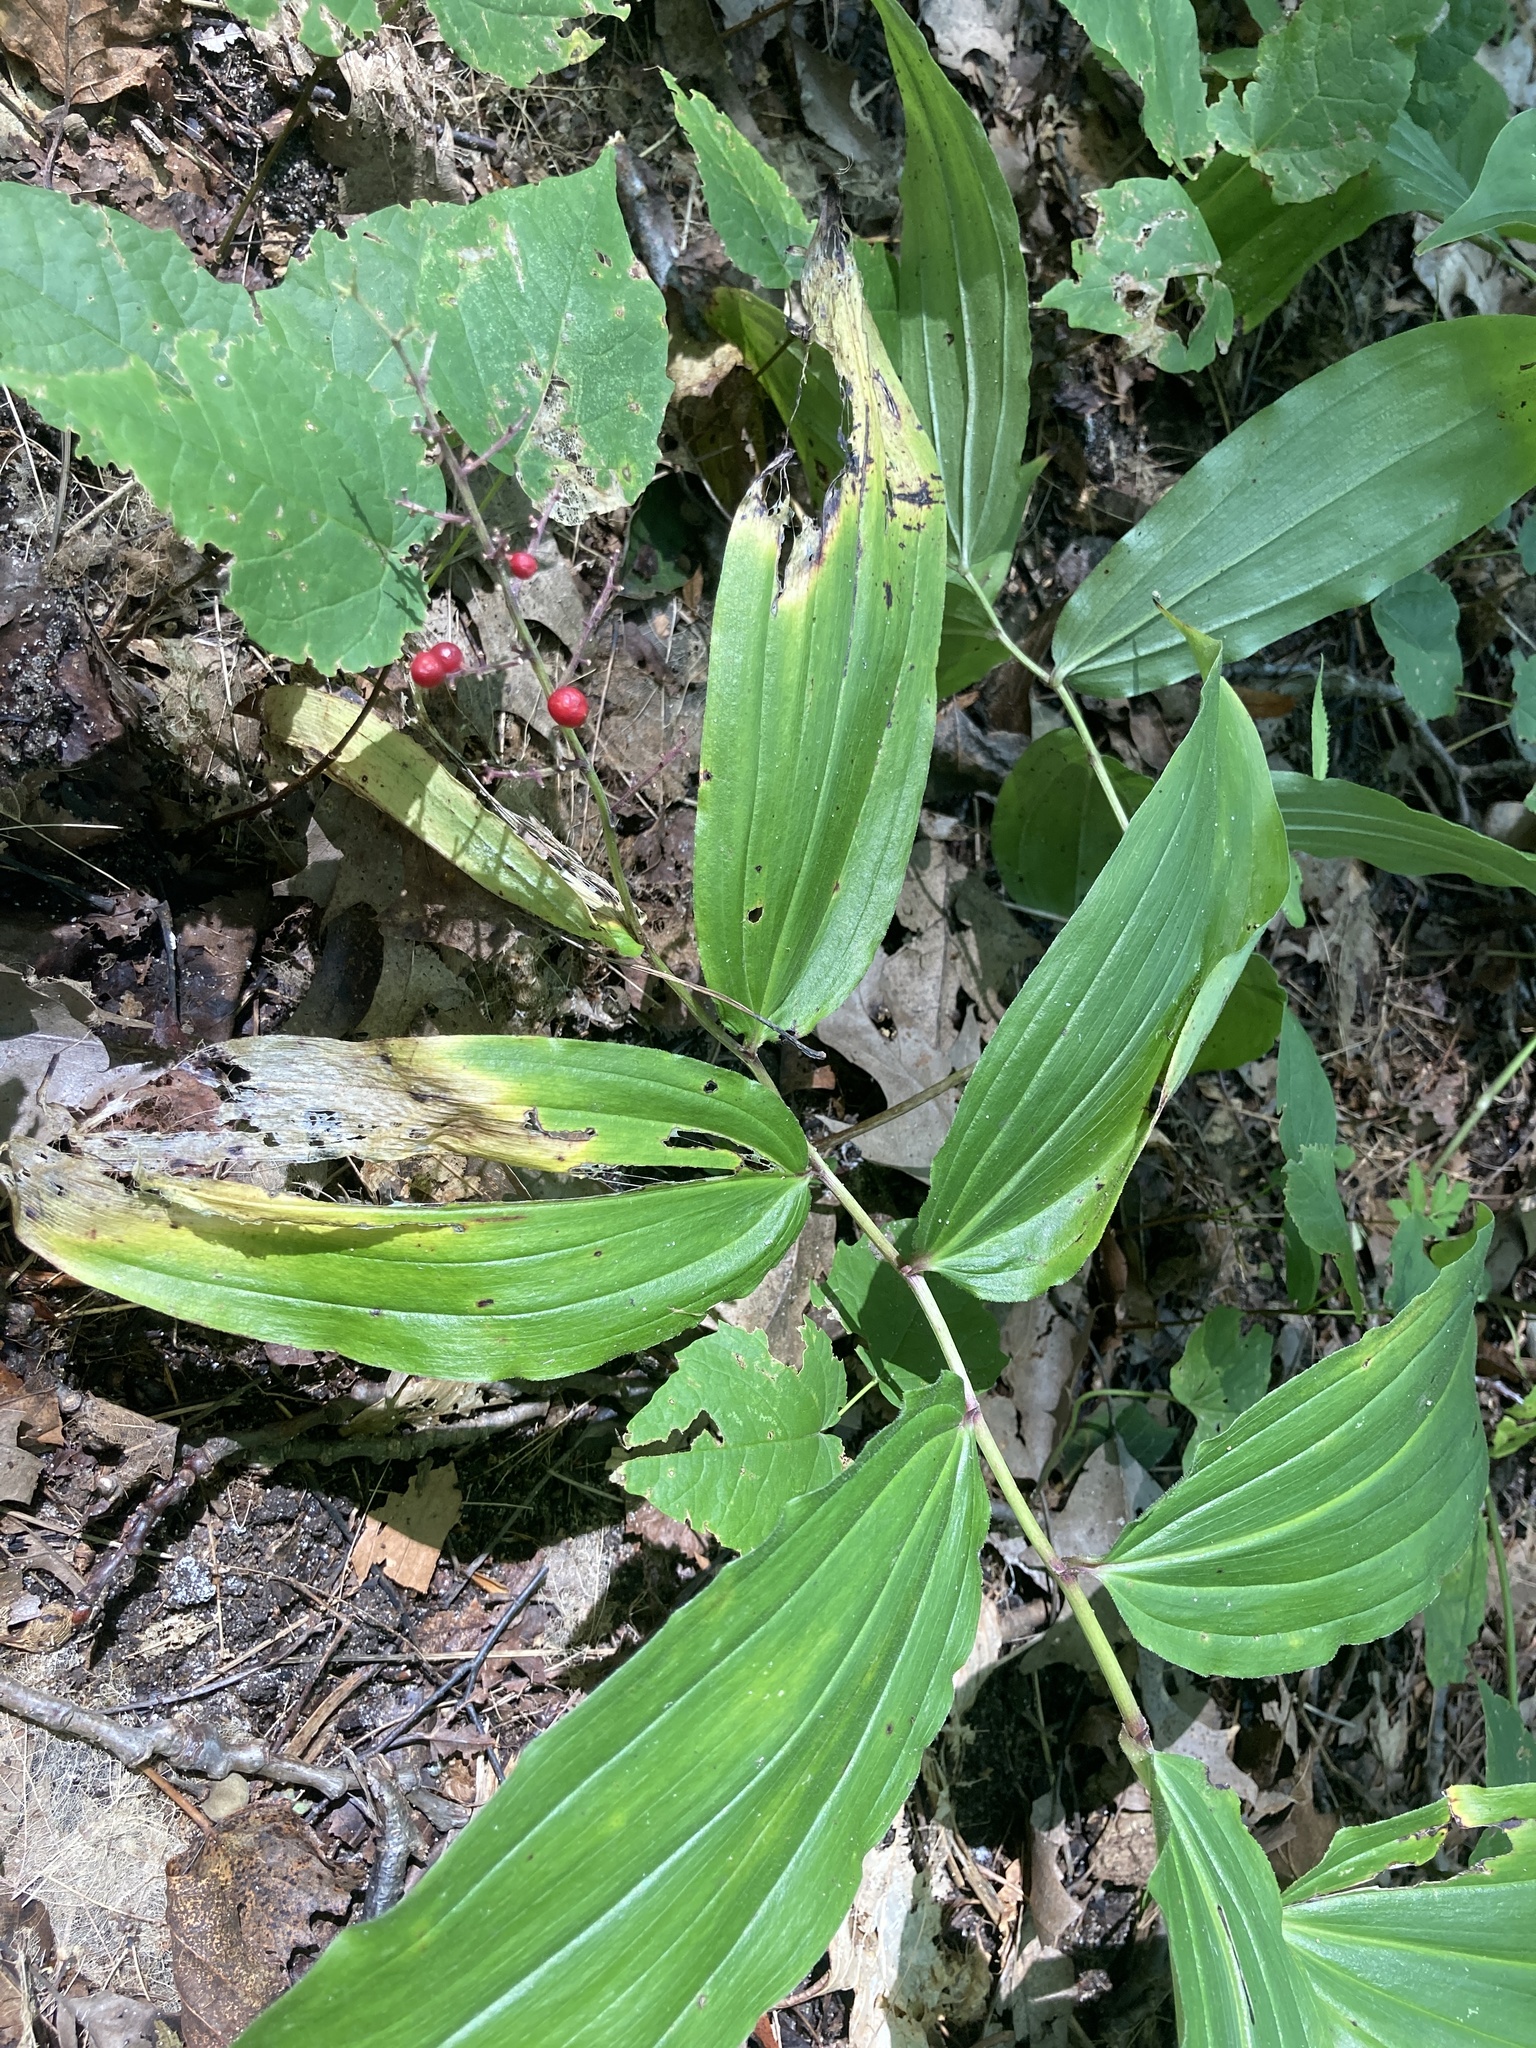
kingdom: Plantae
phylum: Tracheophyta
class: Liliopsida
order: Asparagales
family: Asparagaceae
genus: Maianthemum
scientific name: Maianthemum racemosum
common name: False spikenard
